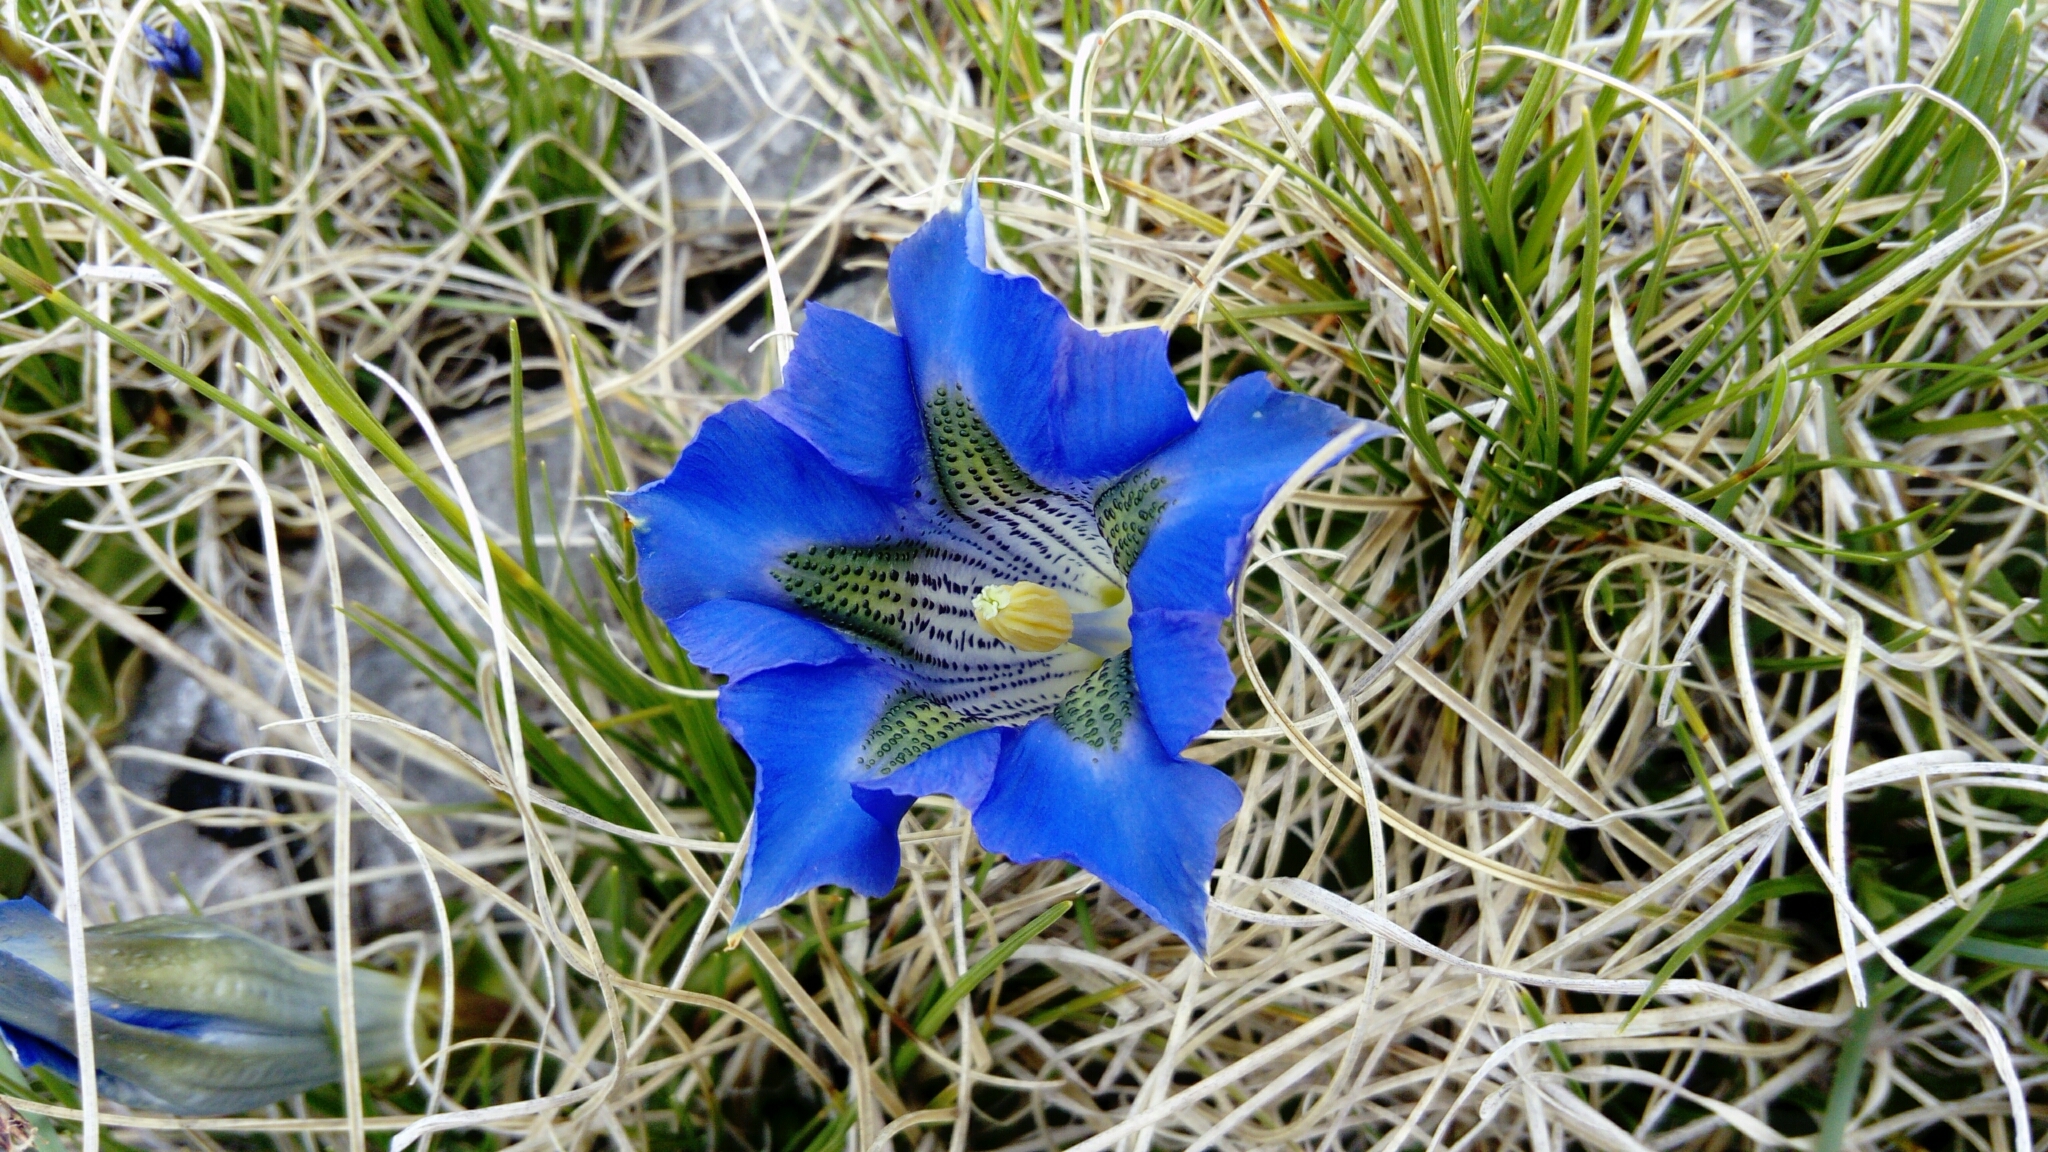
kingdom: Plantae
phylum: Tracheophyta
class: Magnoliopsida
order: Gentianales
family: Gentianaceae
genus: Gentiana
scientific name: Gentiana acaulis
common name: Trumpet gentian
